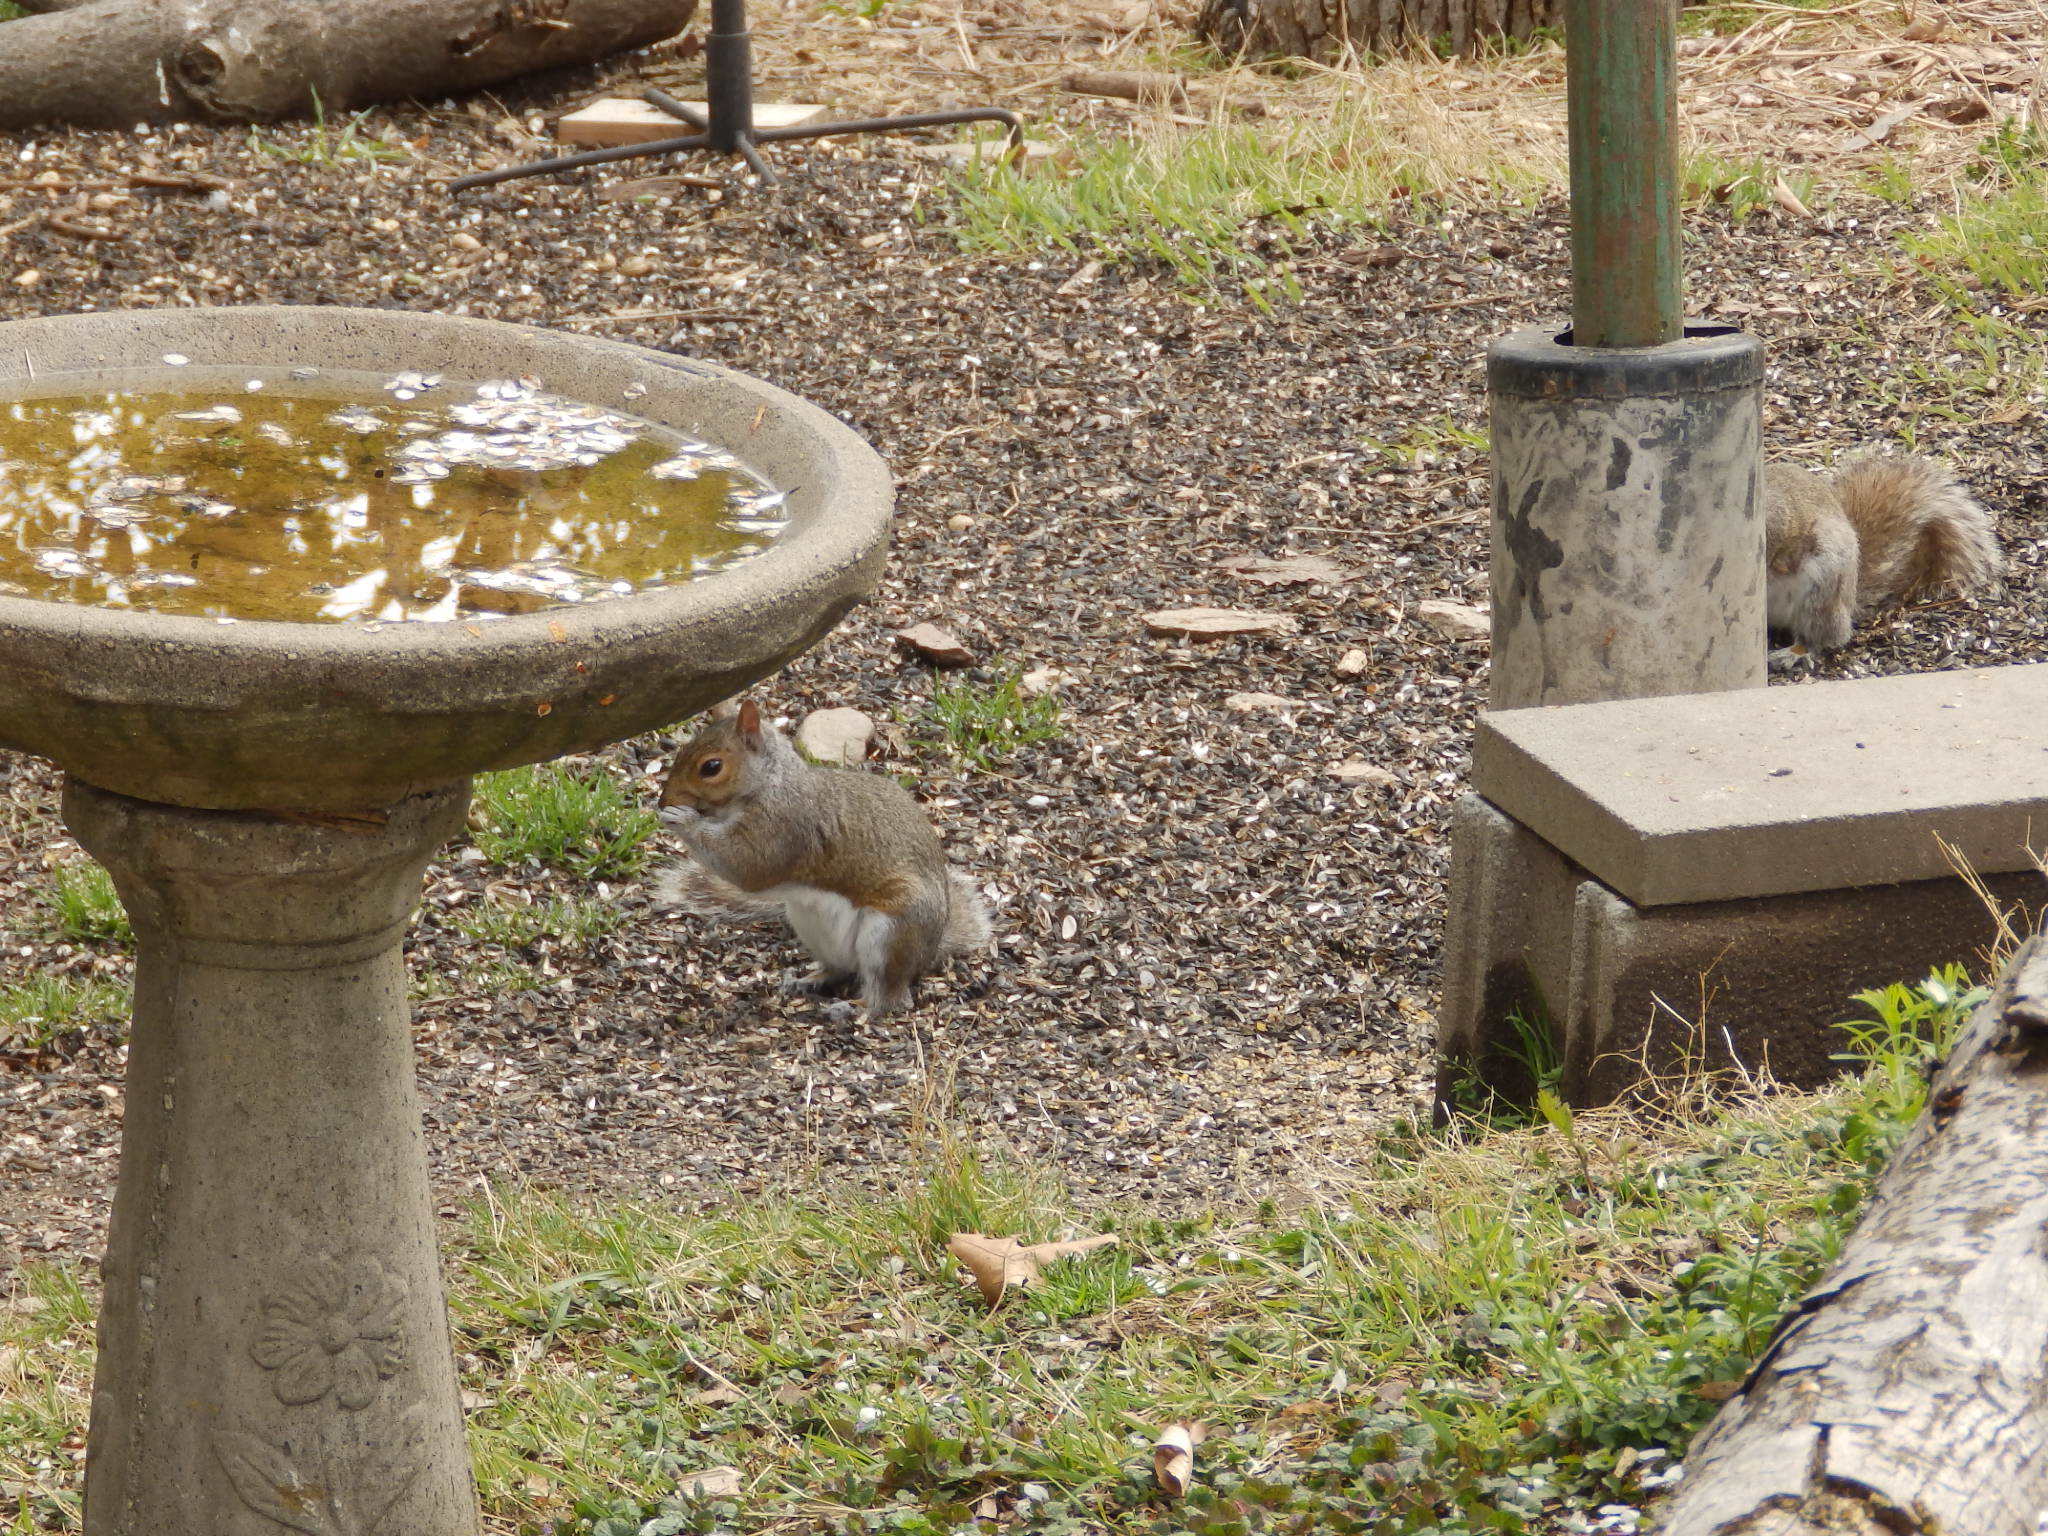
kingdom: Animalia
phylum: Chordata
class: Mammalia
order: Rodentia
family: Sciuridae
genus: Sciurus
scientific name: Sciurus carolinensis
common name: Eastern gray squirrel
